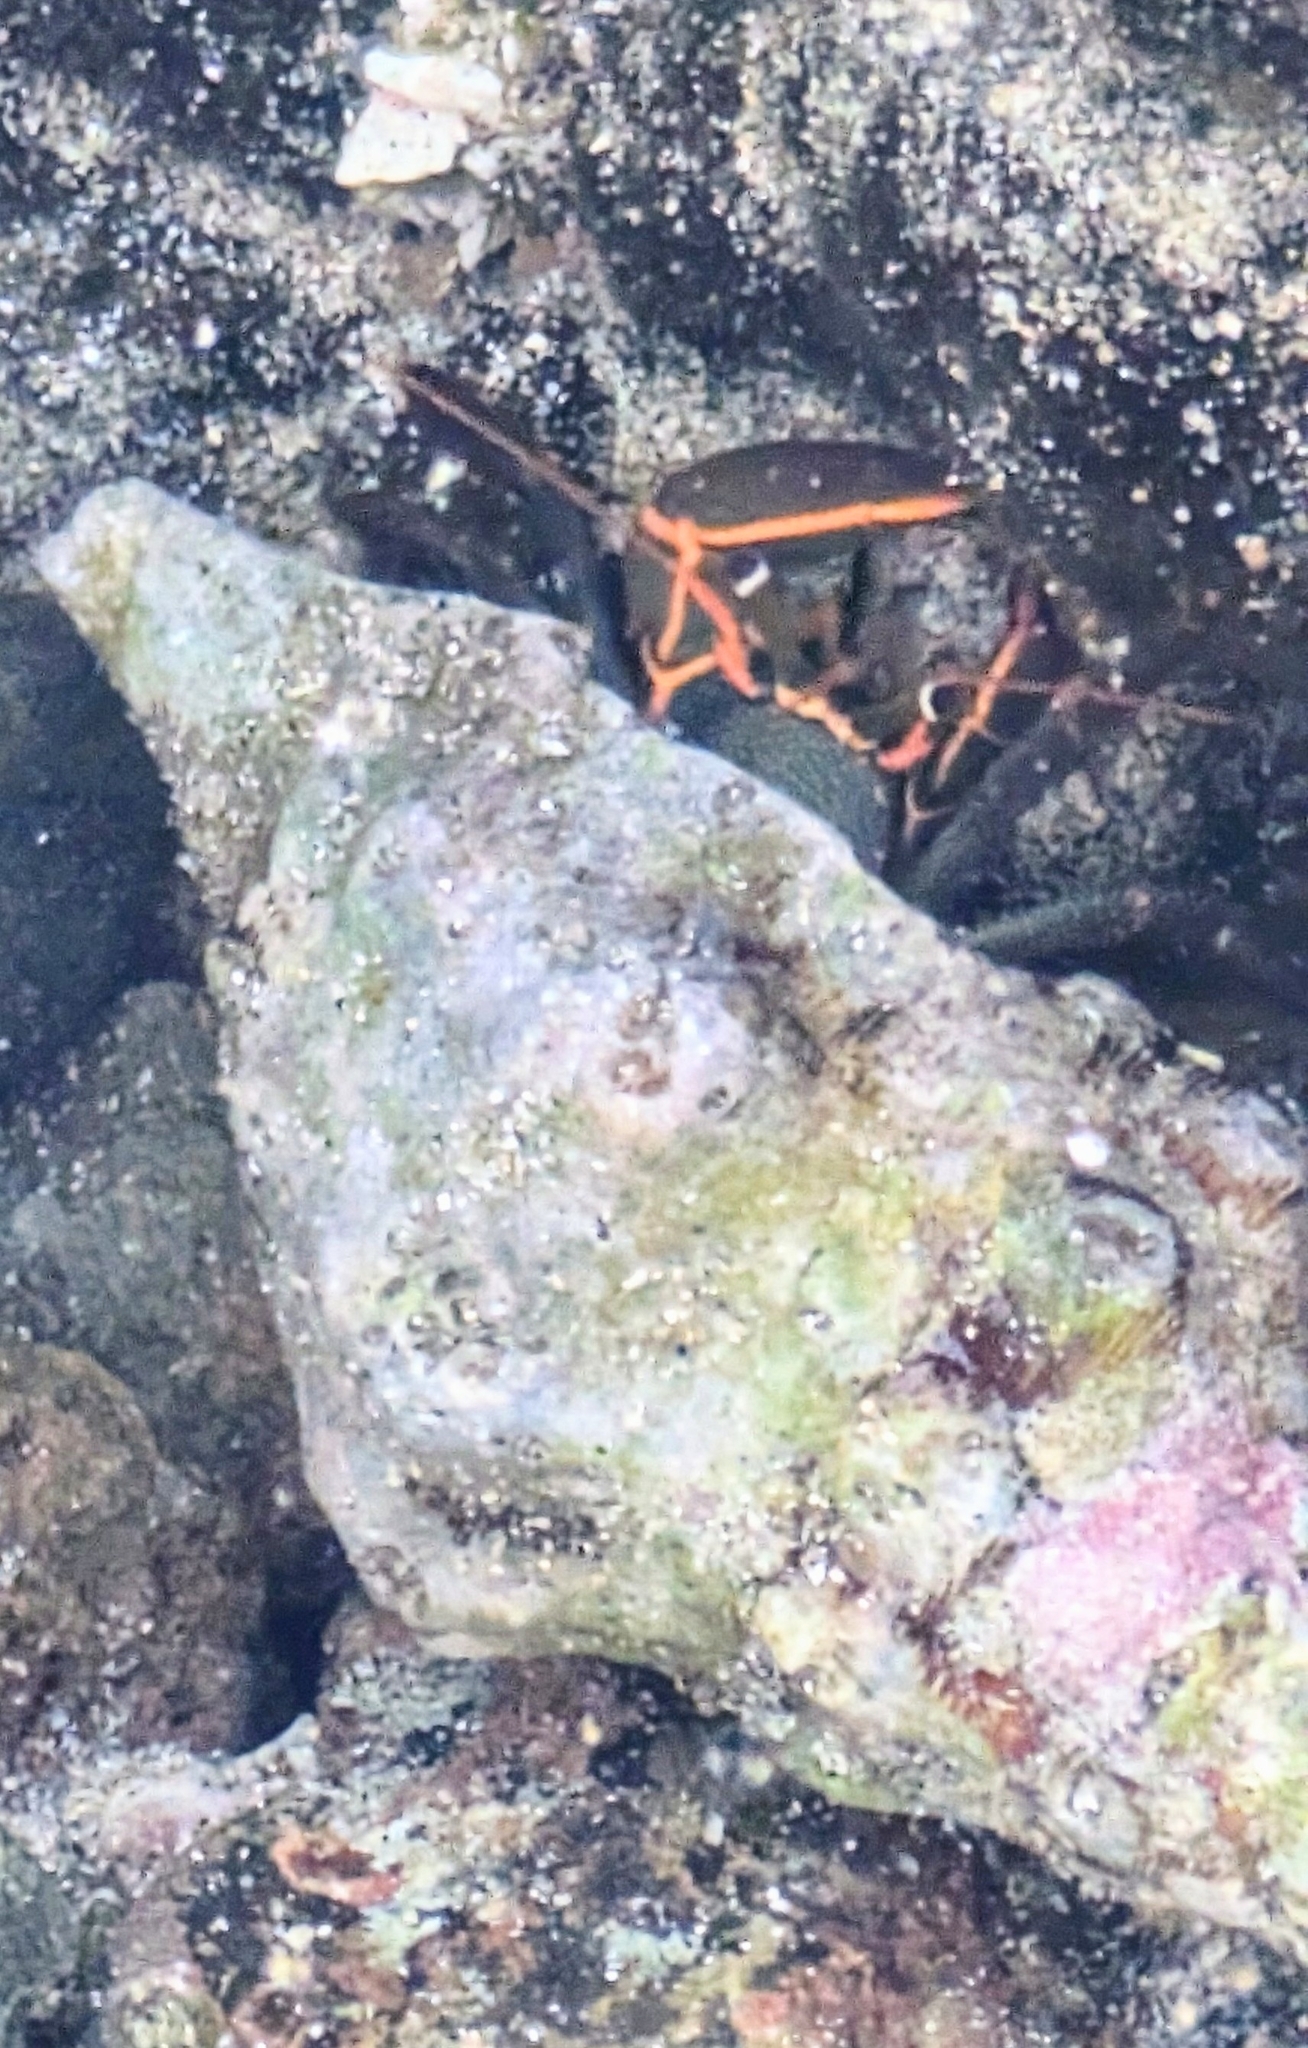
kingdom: Animalia
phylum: Arthropoda
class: Malacostraca
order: Decapoda
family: Diogenidae
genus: Calcinus
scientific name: Calcinus obscurus
